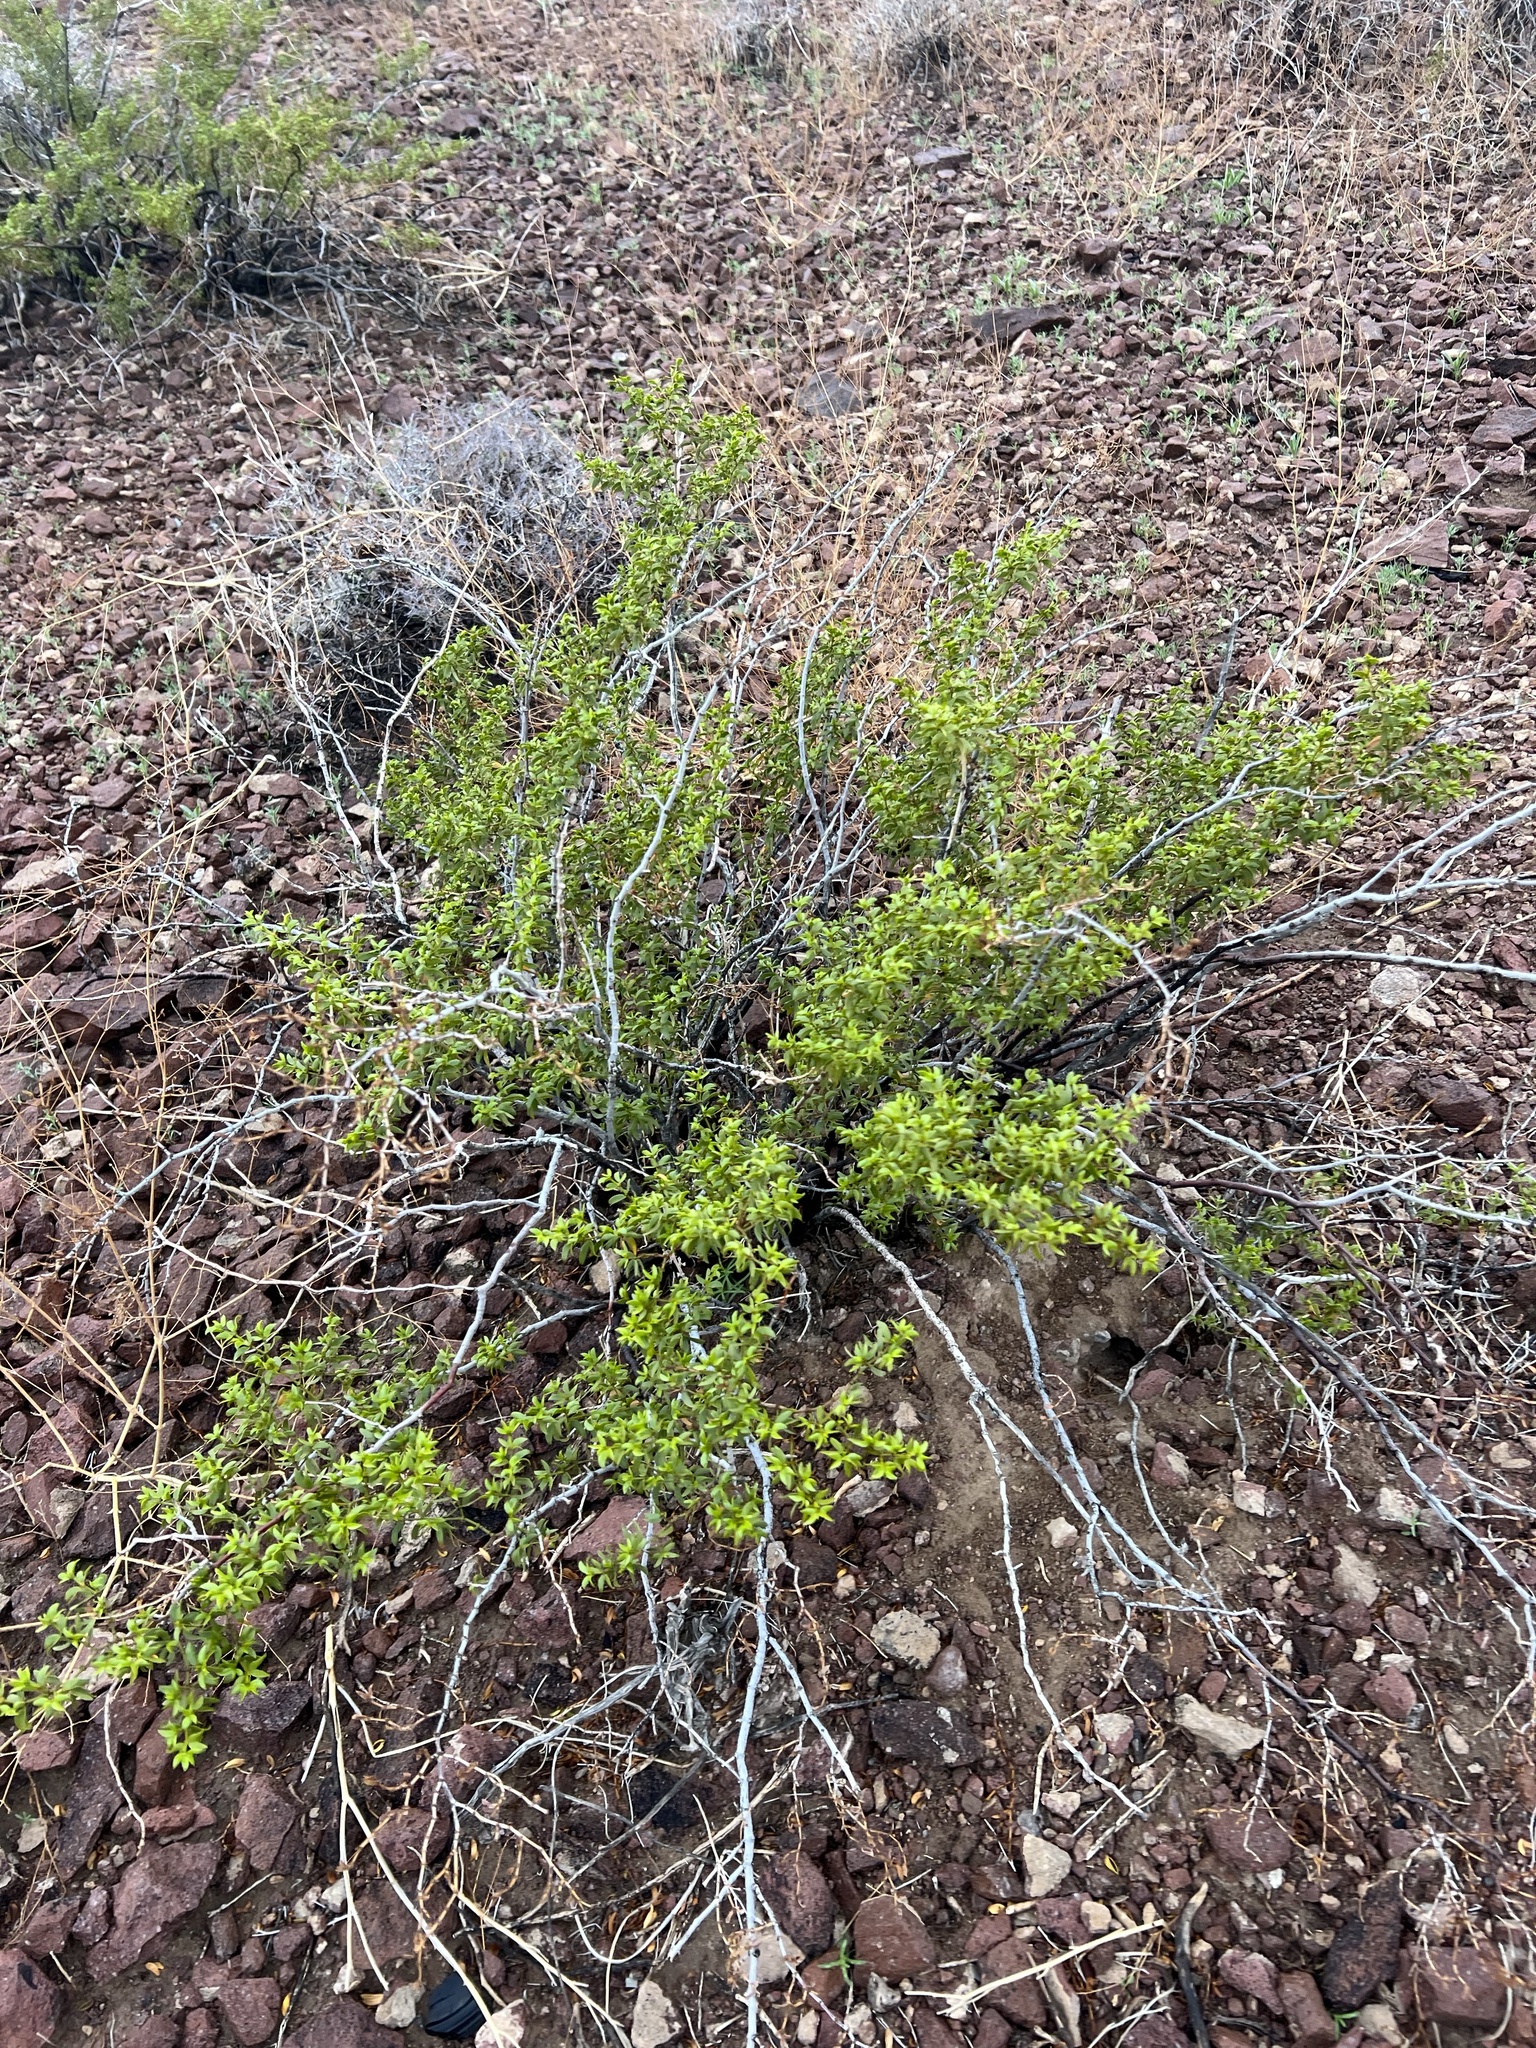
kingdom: Plantae
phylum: Tracheophyta
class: Magnoliopsida
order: Zygophyllales
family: Zygophyllaceae
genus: Larrea
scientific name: Larrea tridentata
